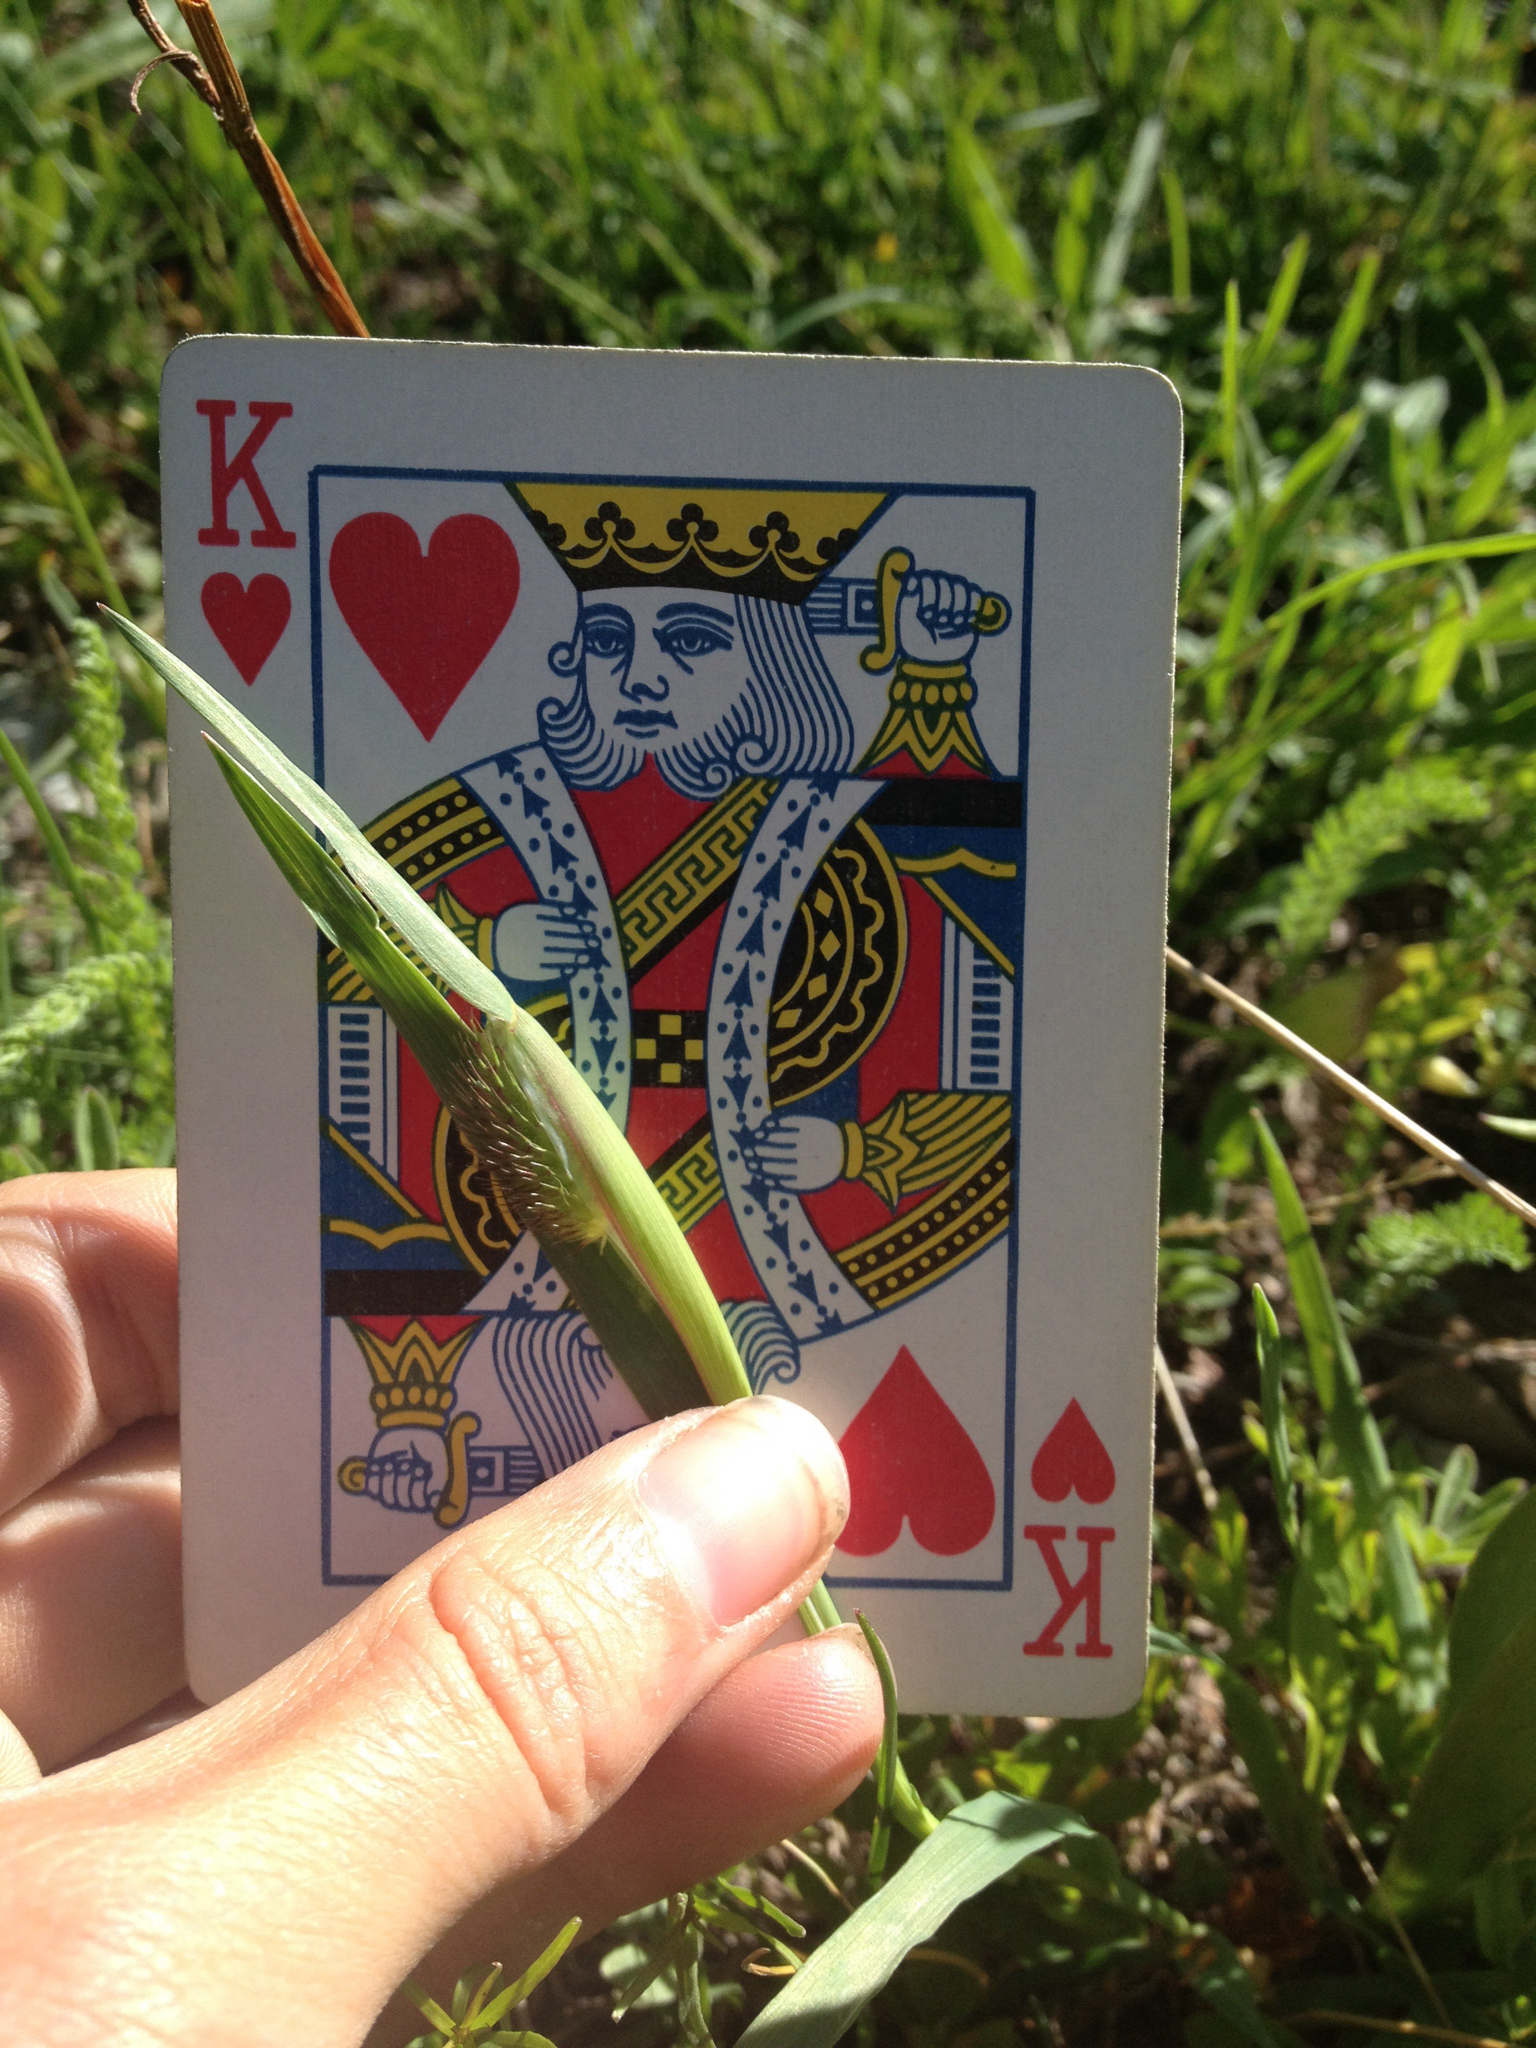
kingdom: Plantae
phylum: Tracheophyta
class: Liliopsida
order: Poales
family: Poaceae
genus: Phleum
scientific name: Phleum pratense
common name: Timothy grass
